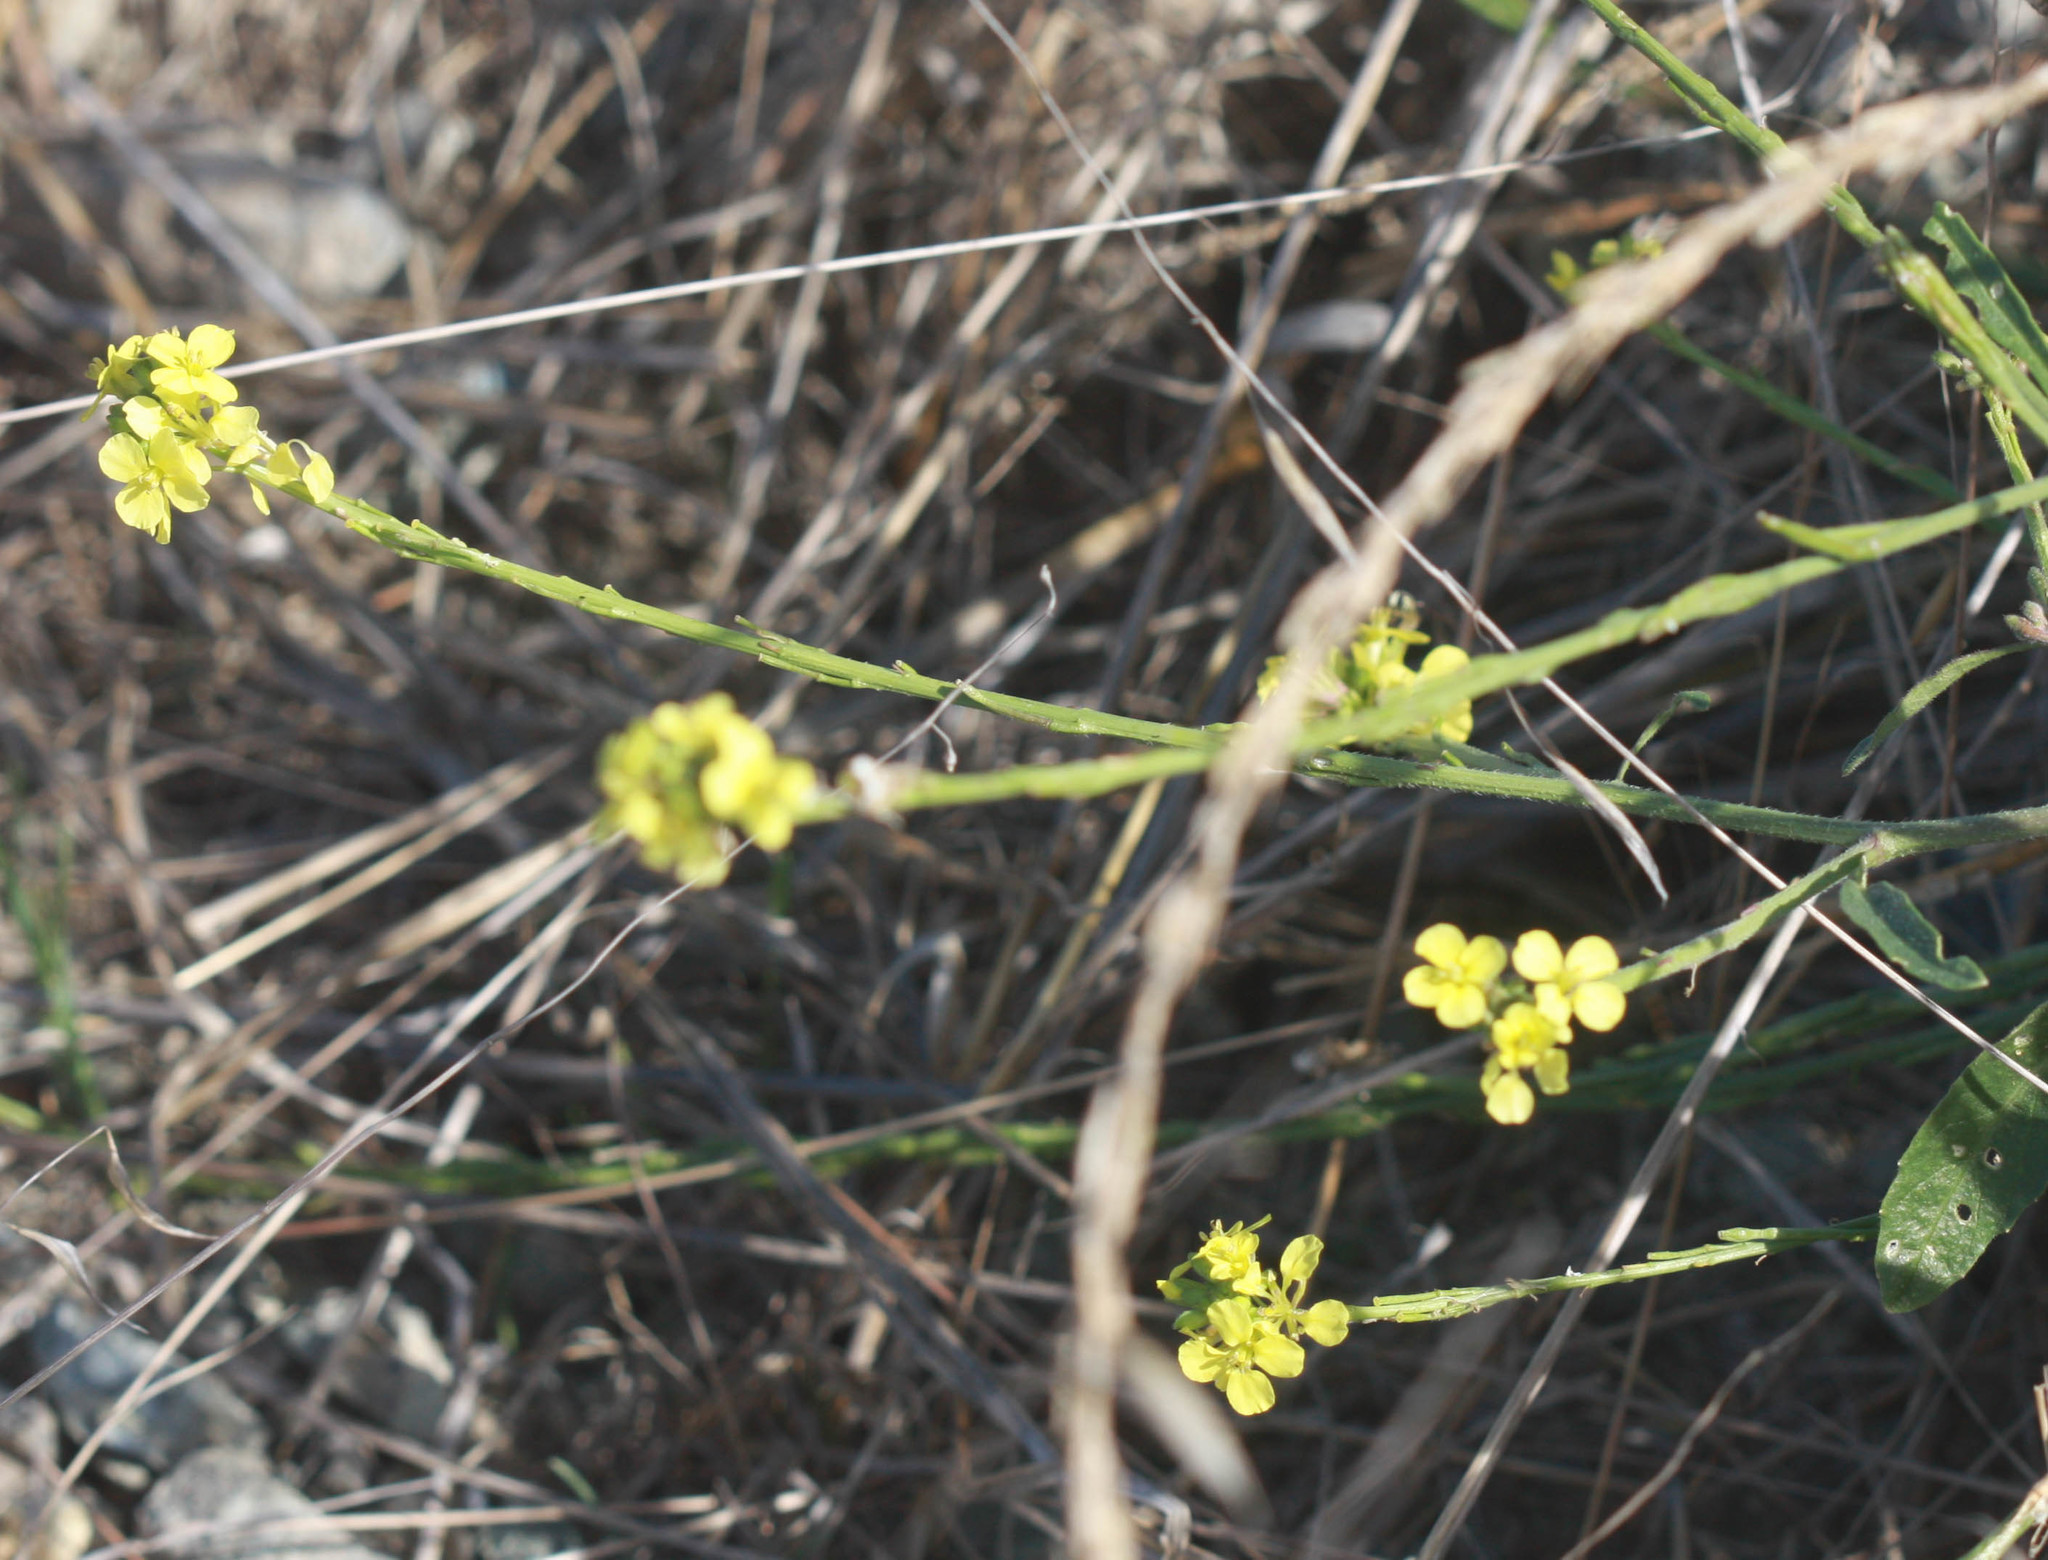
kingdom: Plantae
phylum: Tracheophyta
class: Magnoliopsida
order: Brassicales
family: Brassicaceae
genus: Hirschfeldia
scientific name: Hirschfeldia incana
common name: Hoary mustard
